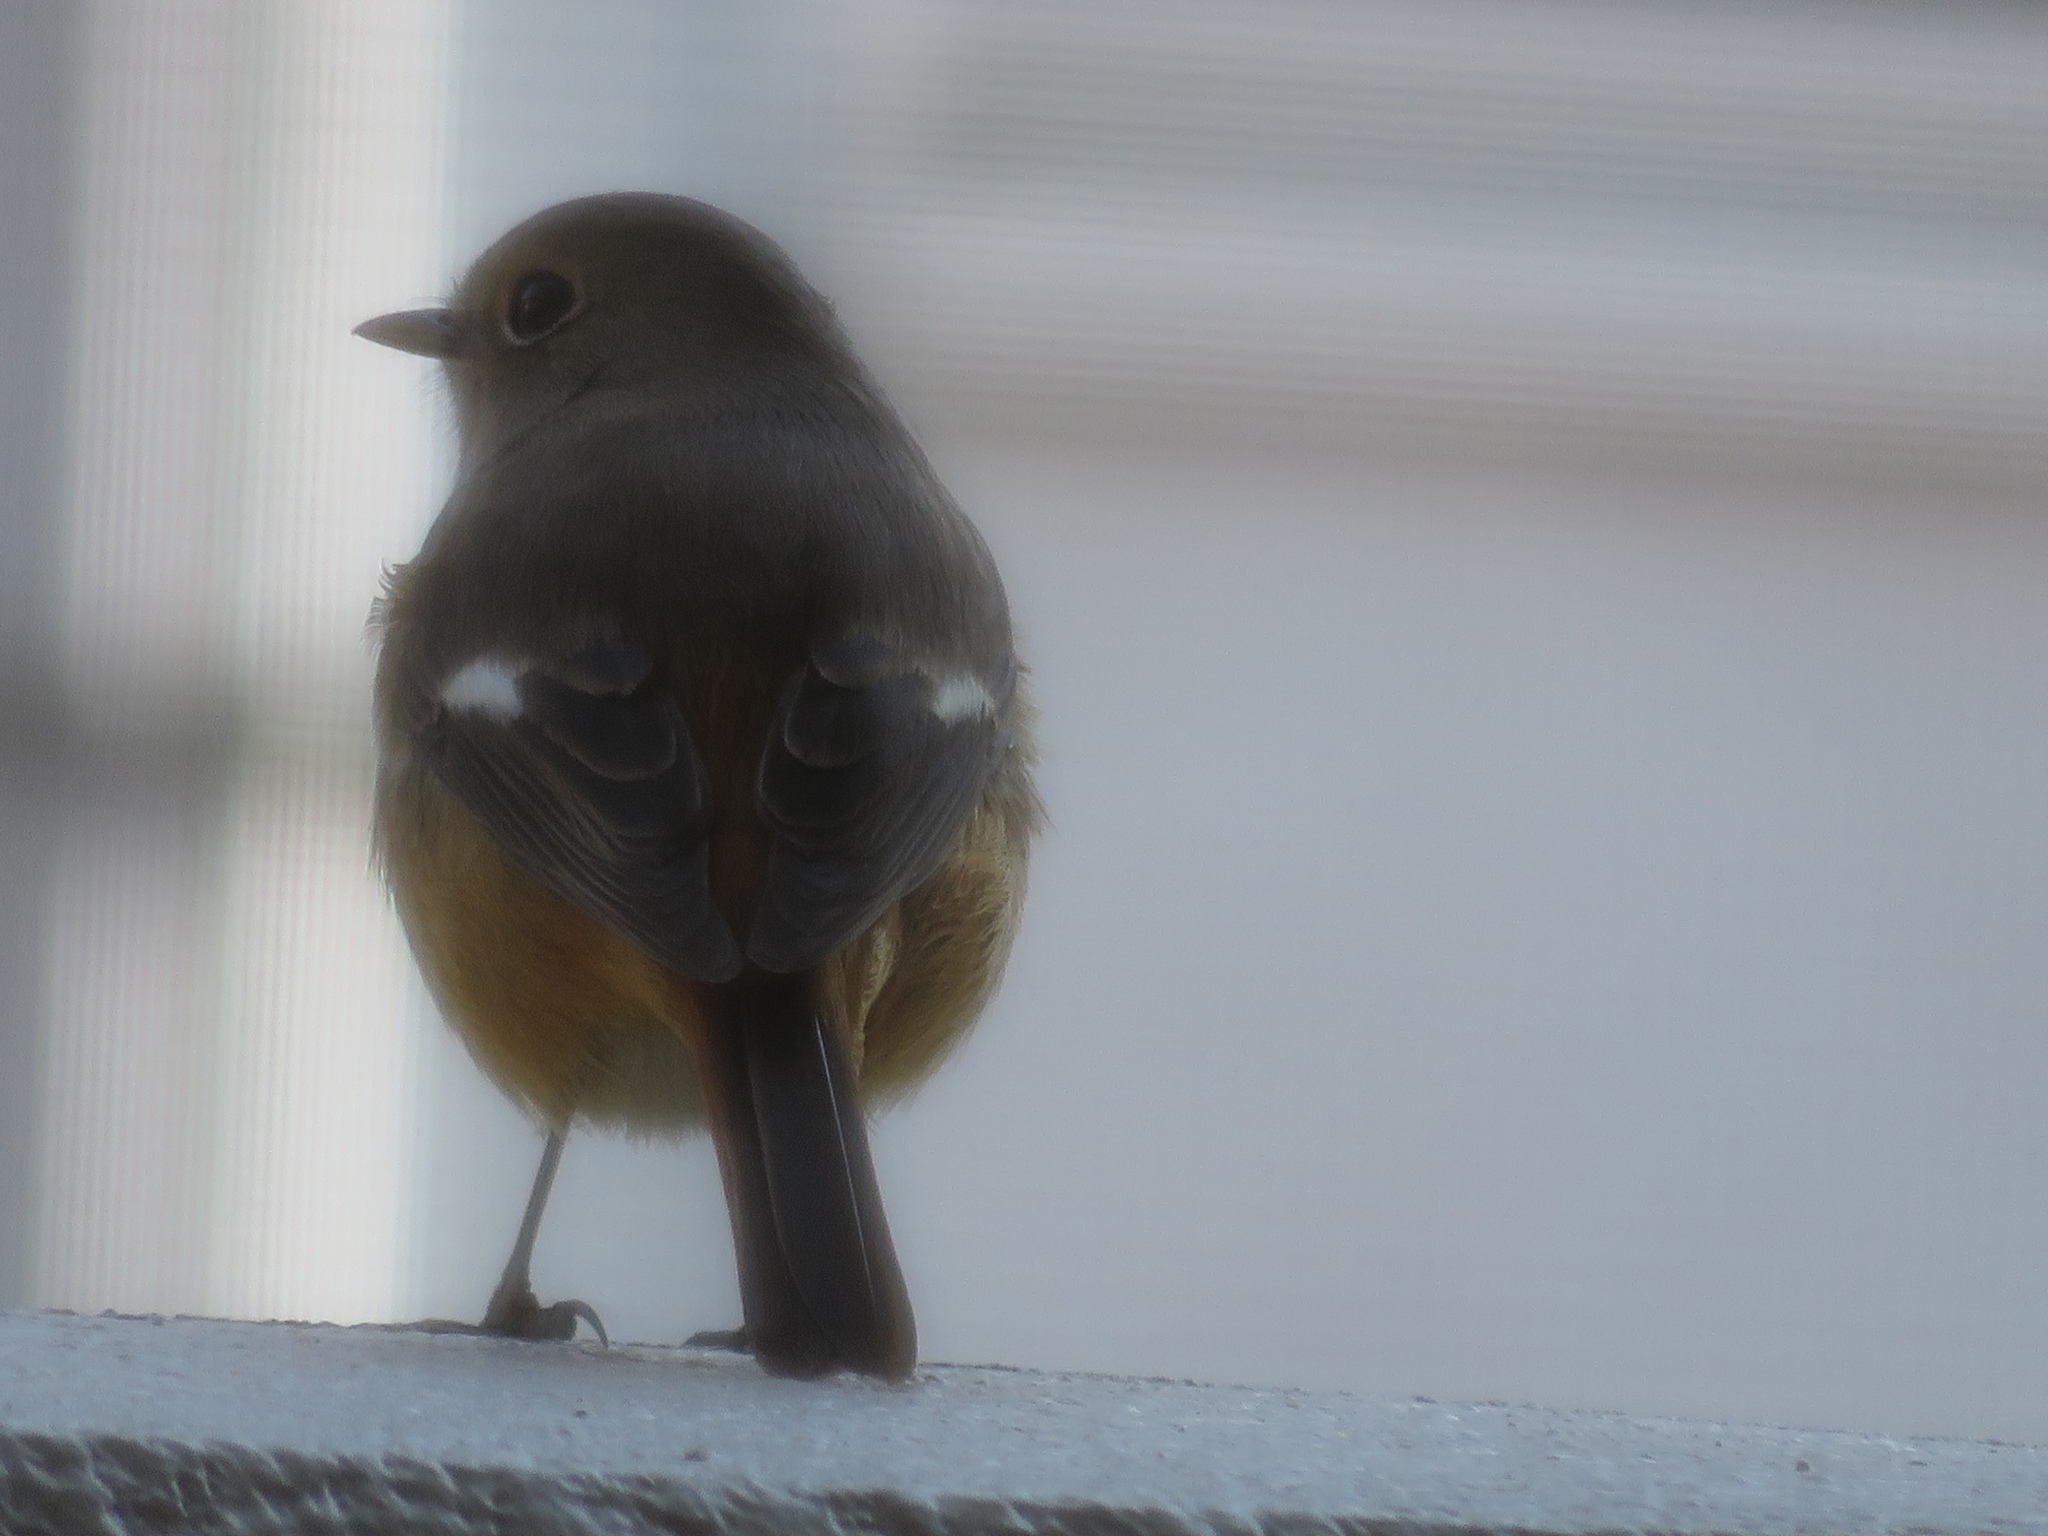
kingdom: Animalia
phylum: Chordata
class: Aves
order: Passeriformes
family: Muscicapidae
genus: Phoenicurus
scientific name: Phoenicurus auroreus
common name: Daurian redstart
